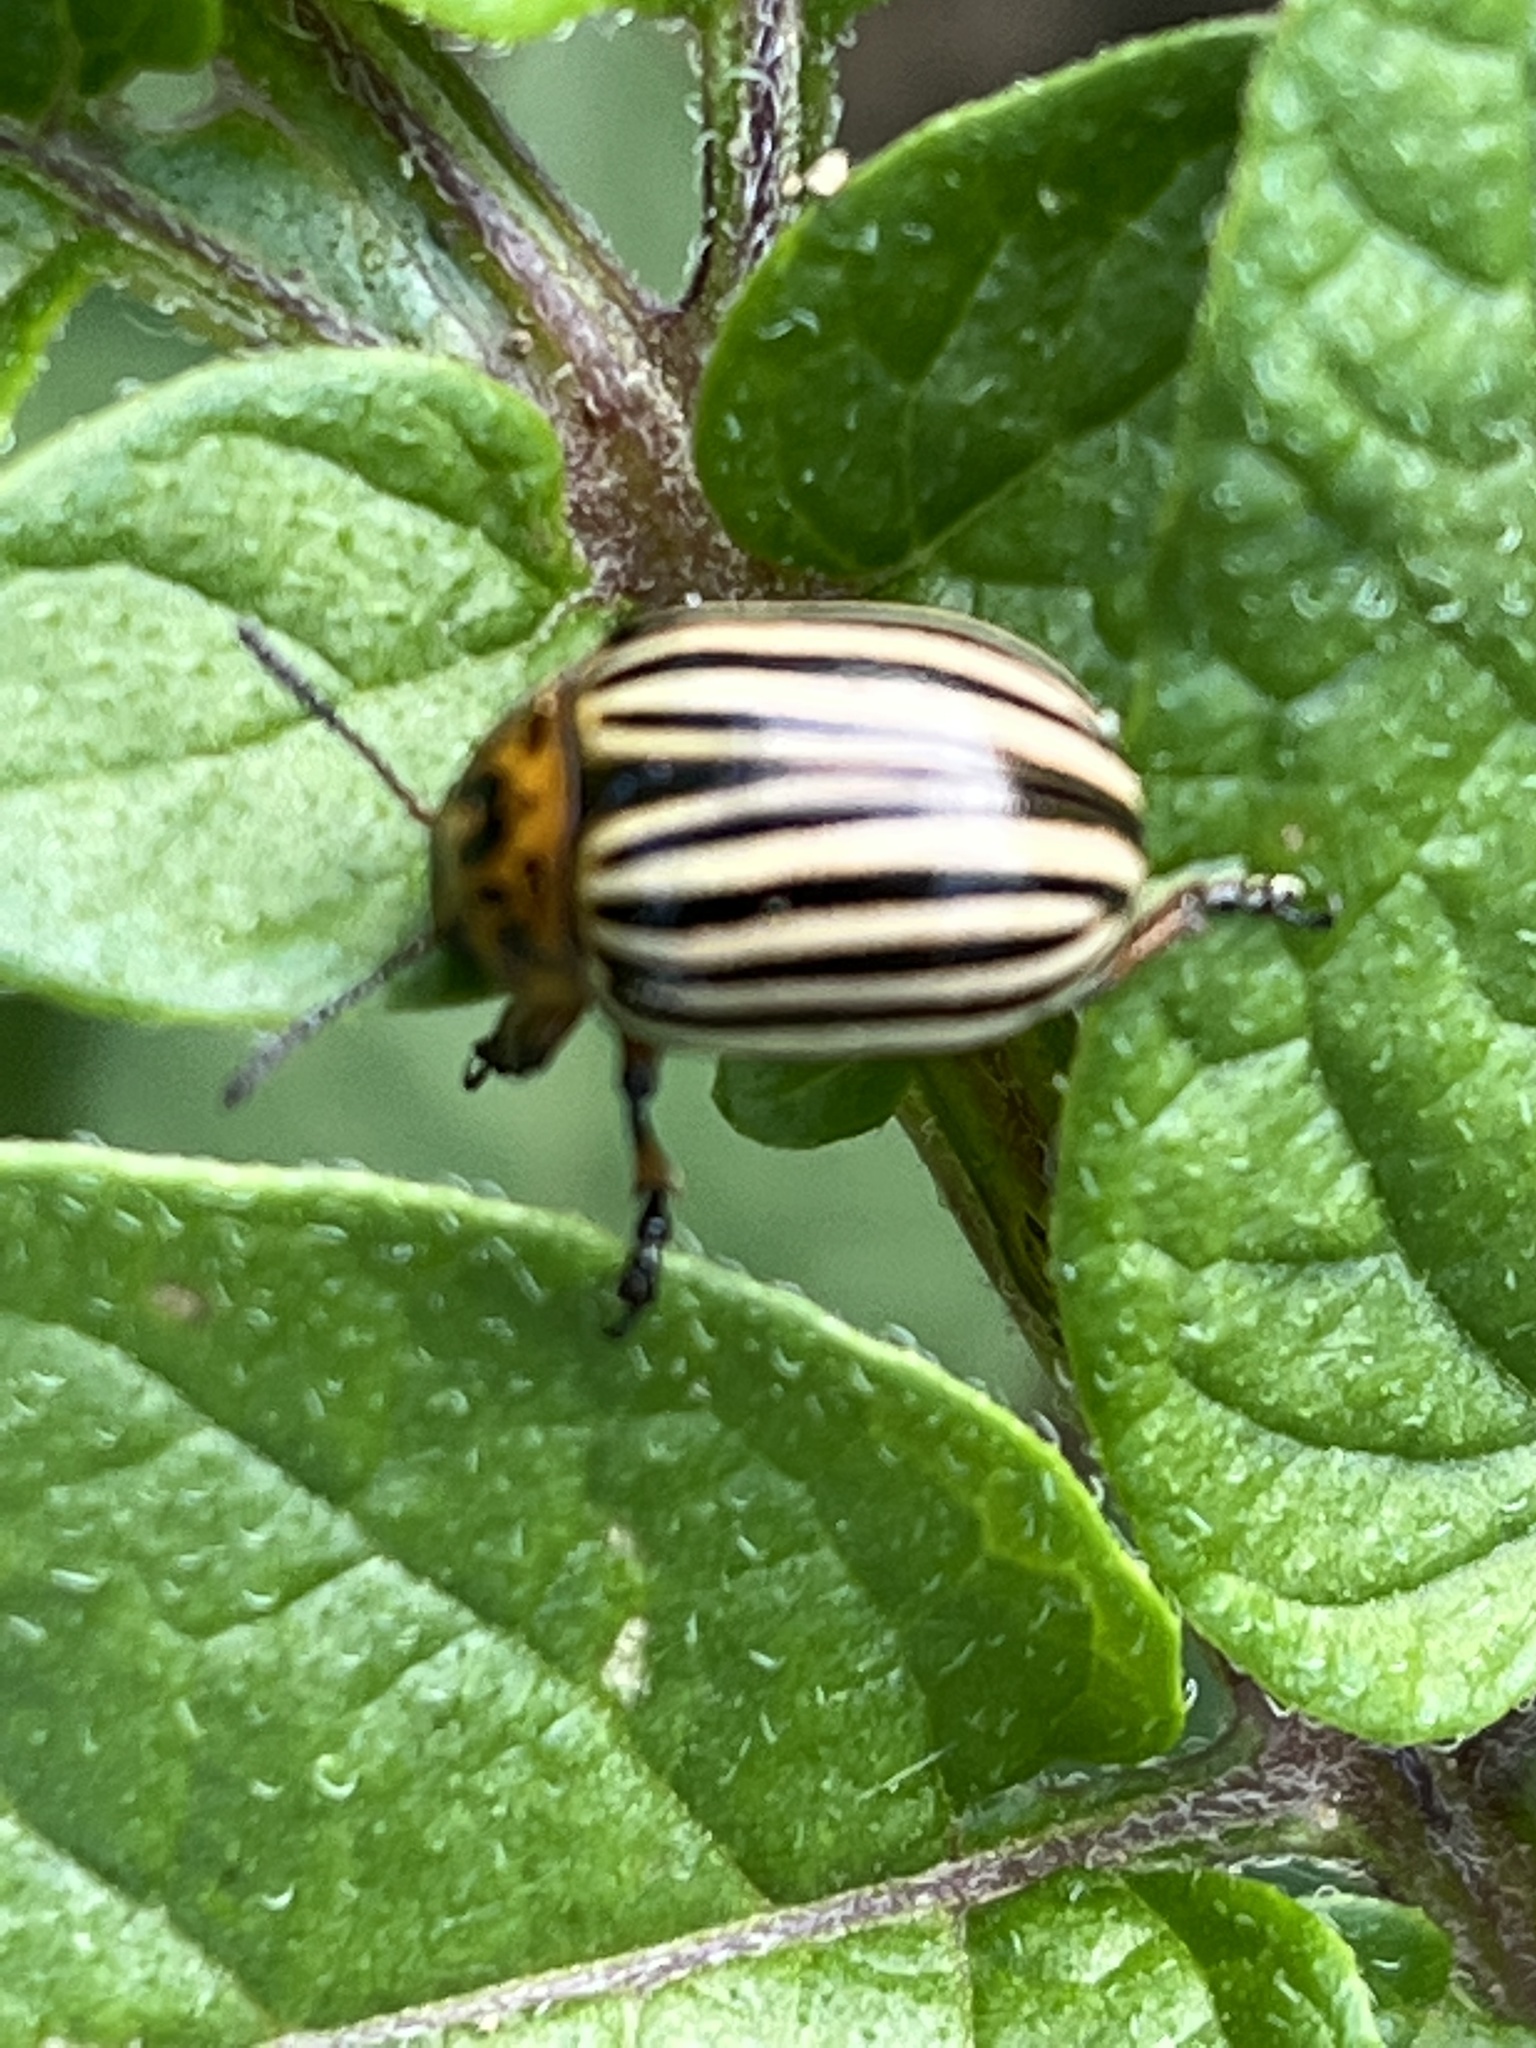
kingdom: Animalia
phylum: Arthropoda
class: Insecta
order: Coleoptera
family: Chrysomelidae
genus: Leptinotarsa
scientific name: Leptinotarsa decemlineata
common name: Colorado potato beetle
